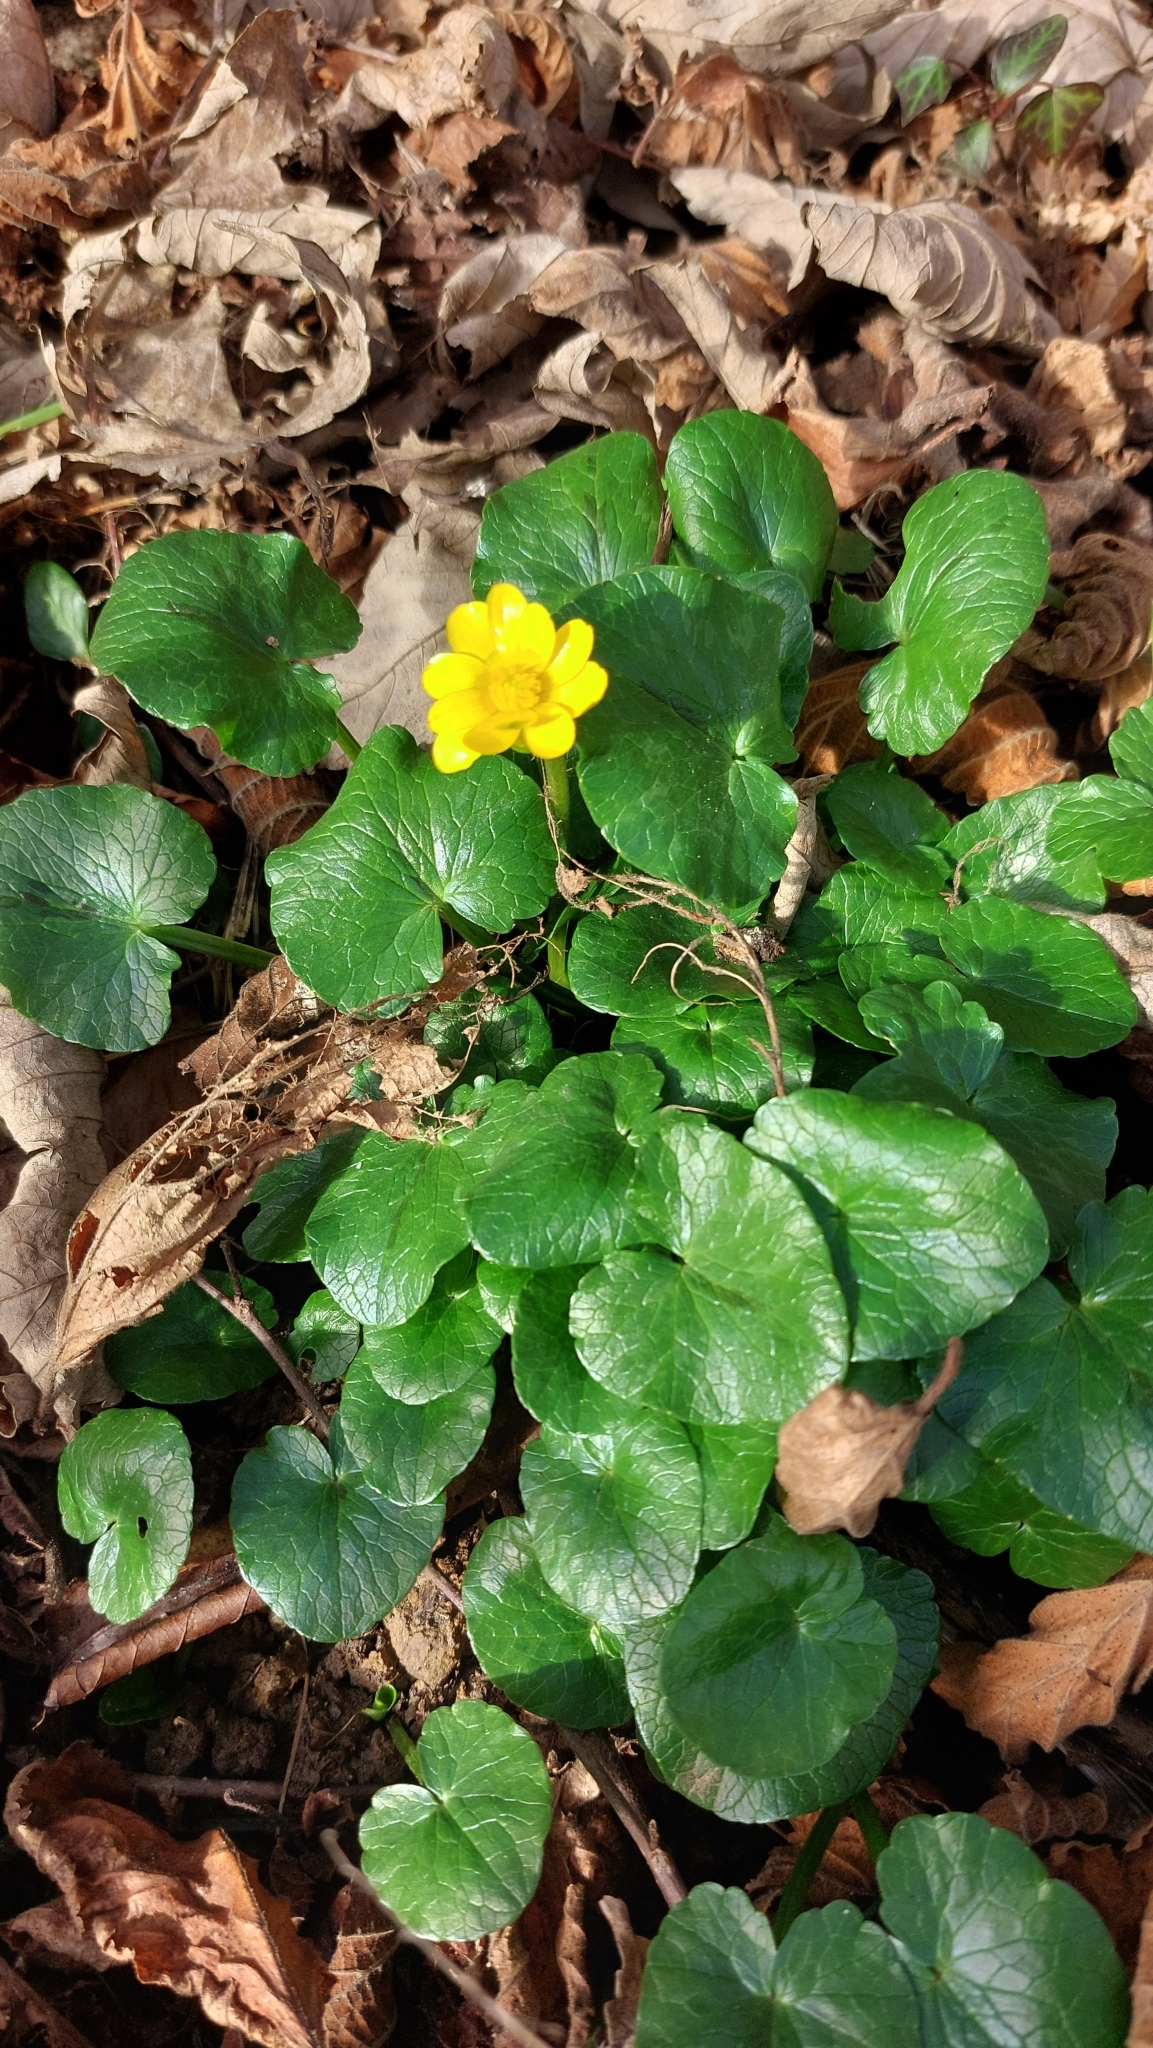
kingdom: Plantae
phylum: Tracheophyta
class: Magnoliopsida
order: Ranunculales
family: Ranunculaceae
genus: Ficaria
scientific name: Ficaria verna
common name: Lesser celandine
